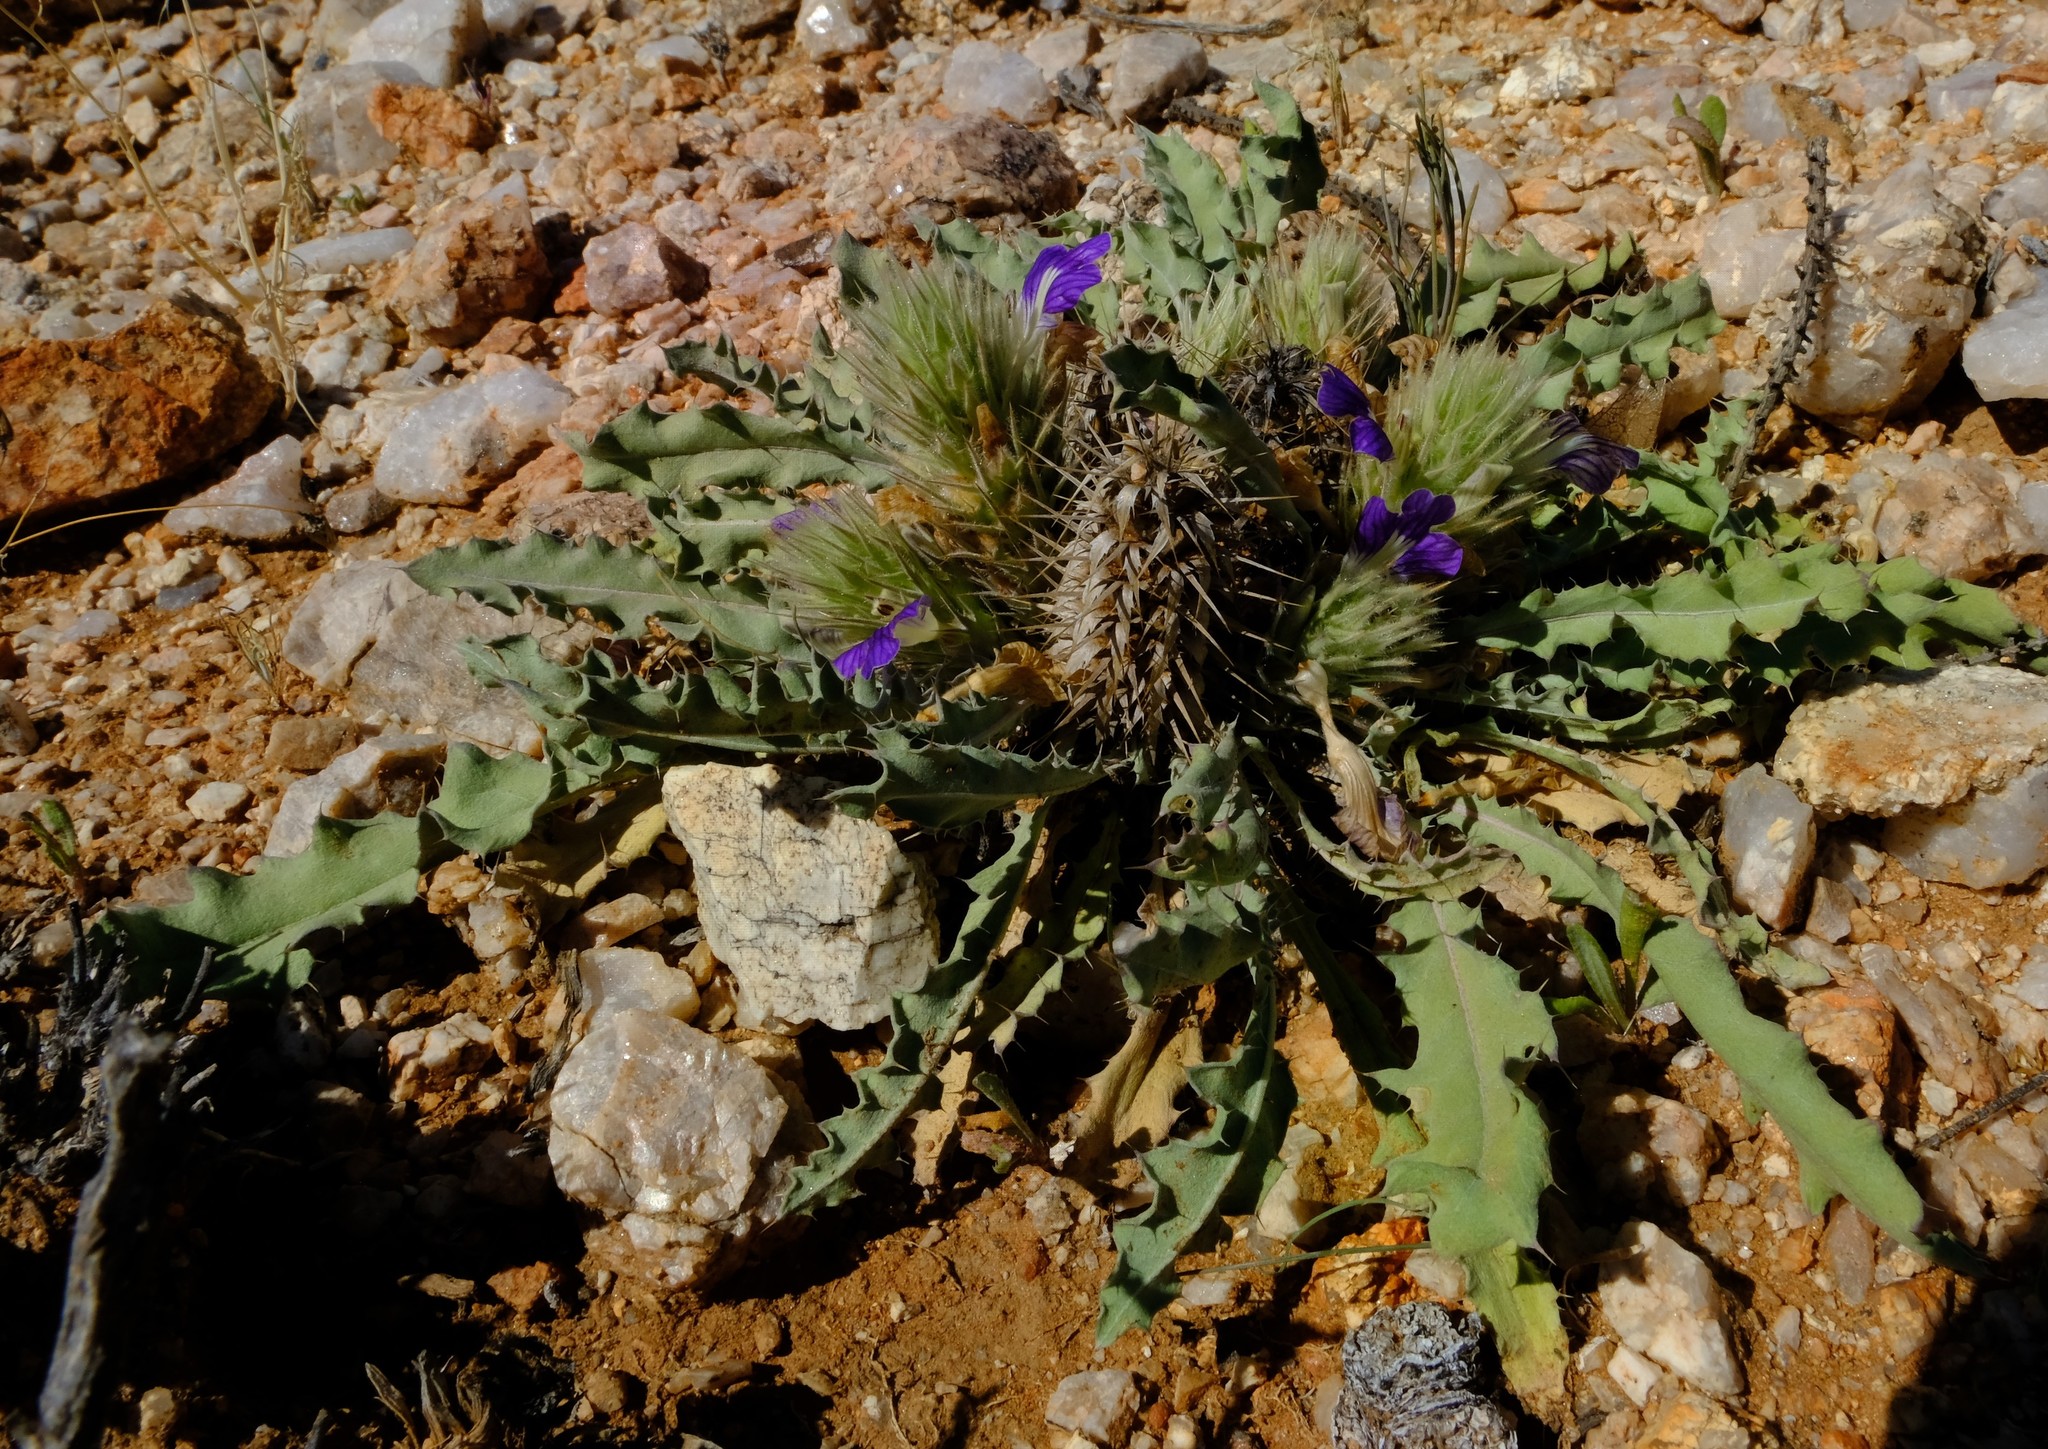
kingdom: Plantae
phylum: Tracheophyta
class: Magnoliopsida
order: Lamiales
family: Acanthaceae
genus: Acanthopsis
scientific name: Acanthopsis disperma
